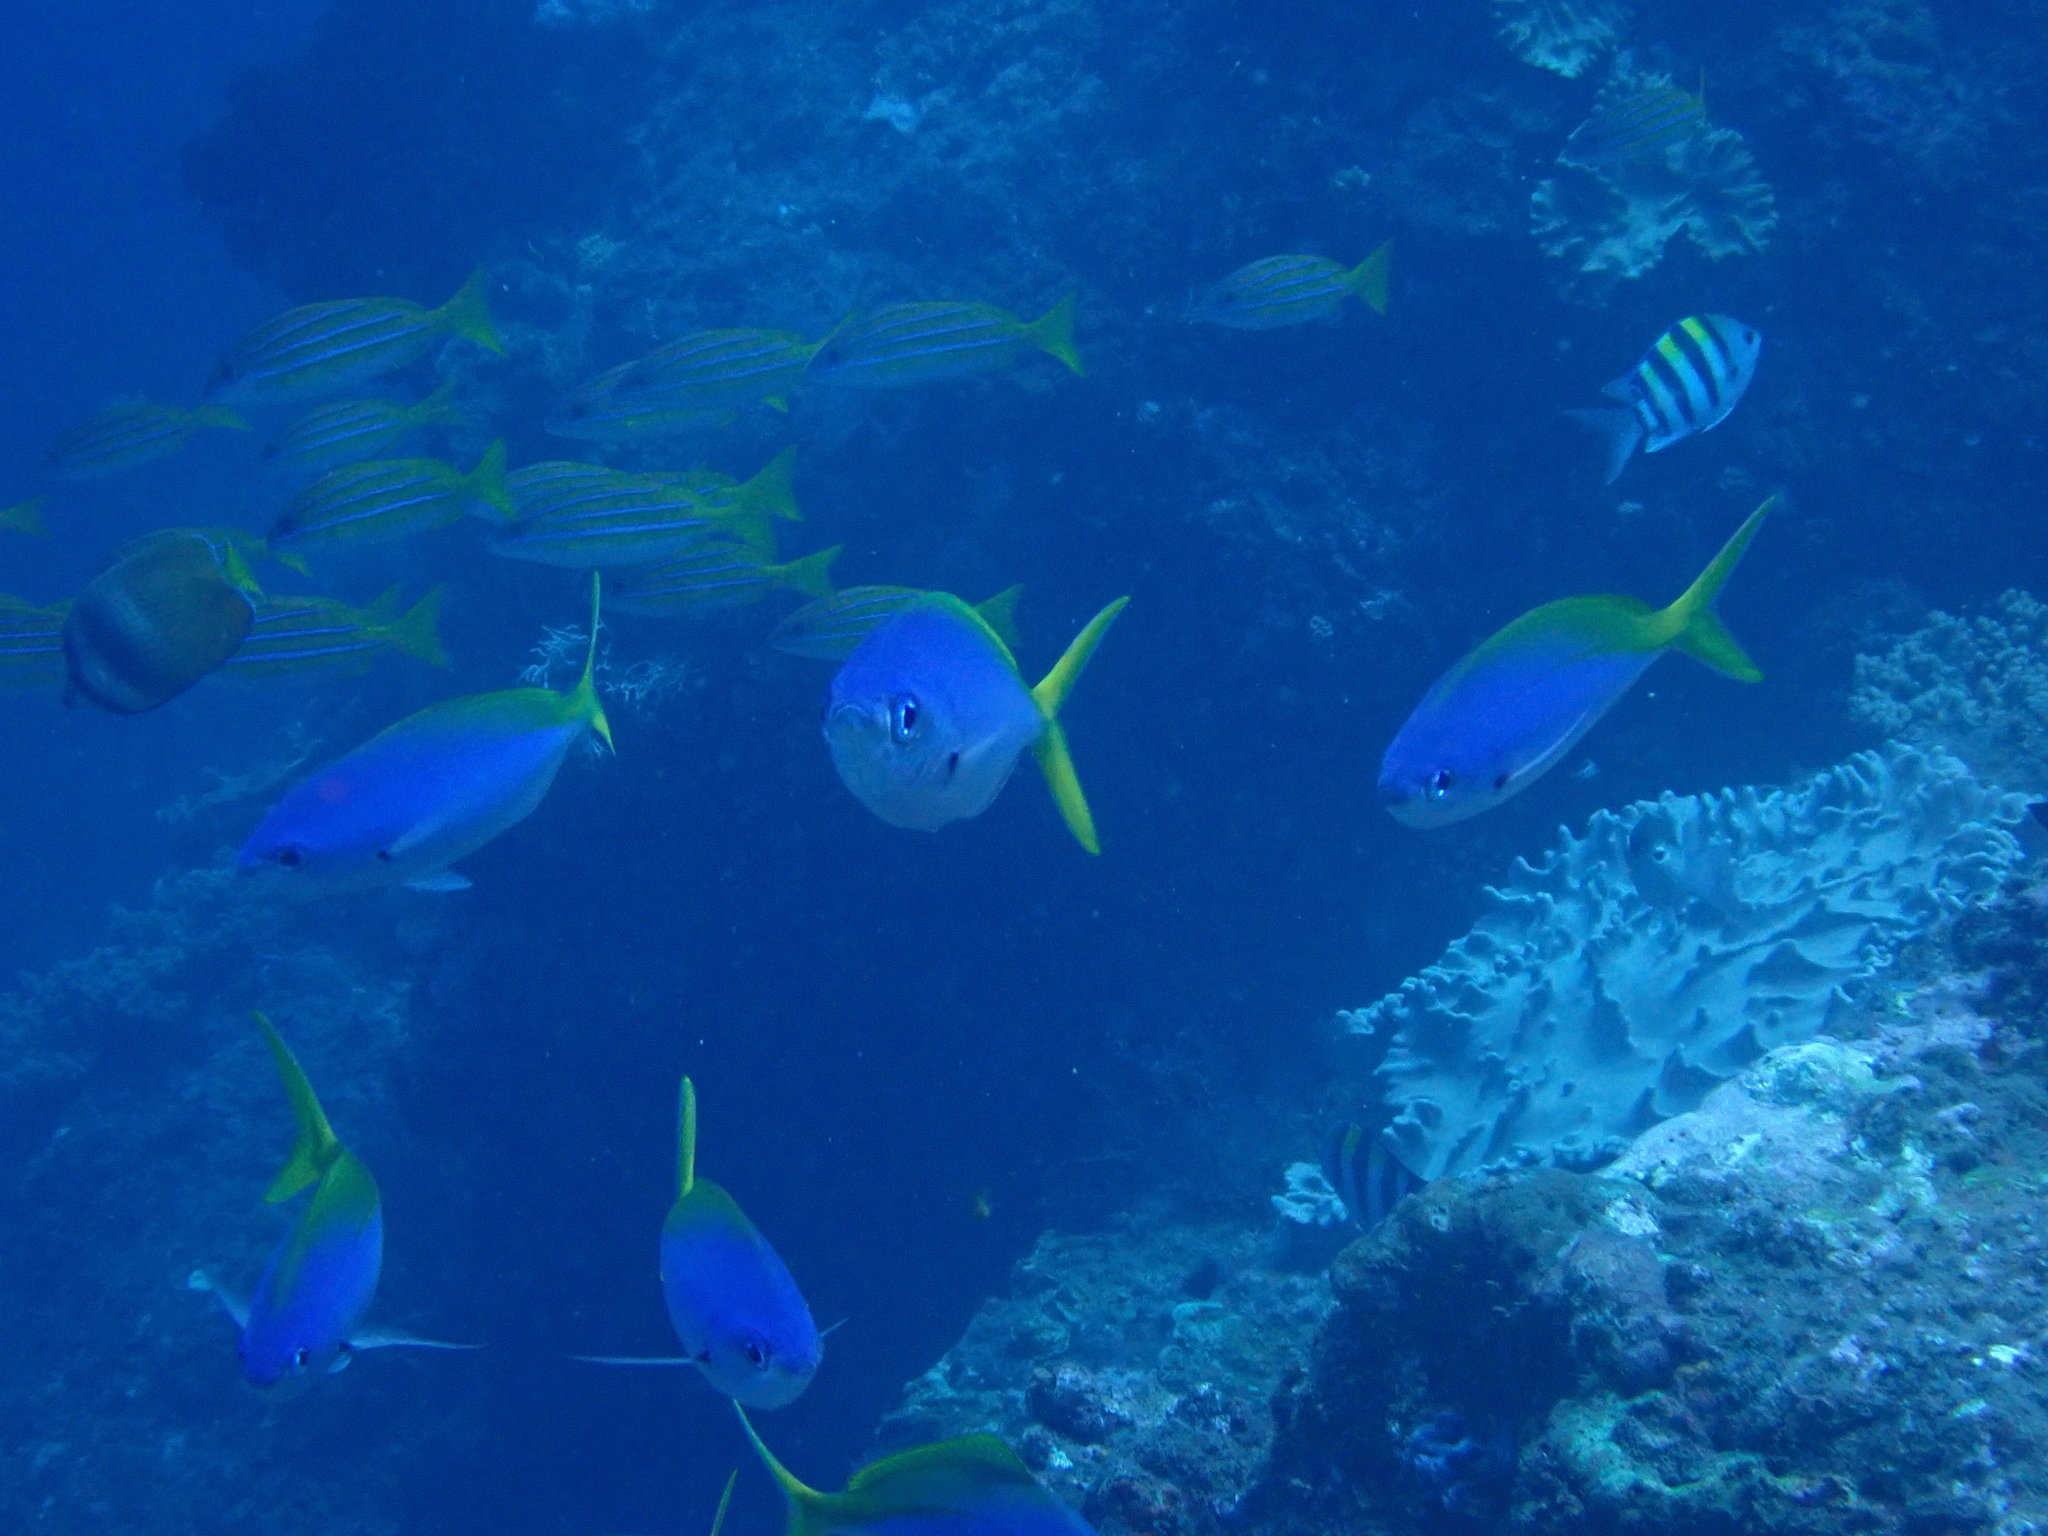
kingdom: Animalia
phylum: Chordata
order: Perciformes
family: Caesionidae
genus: Caesio
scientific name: Caesio teres
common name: Yellow and blueback fusilier
